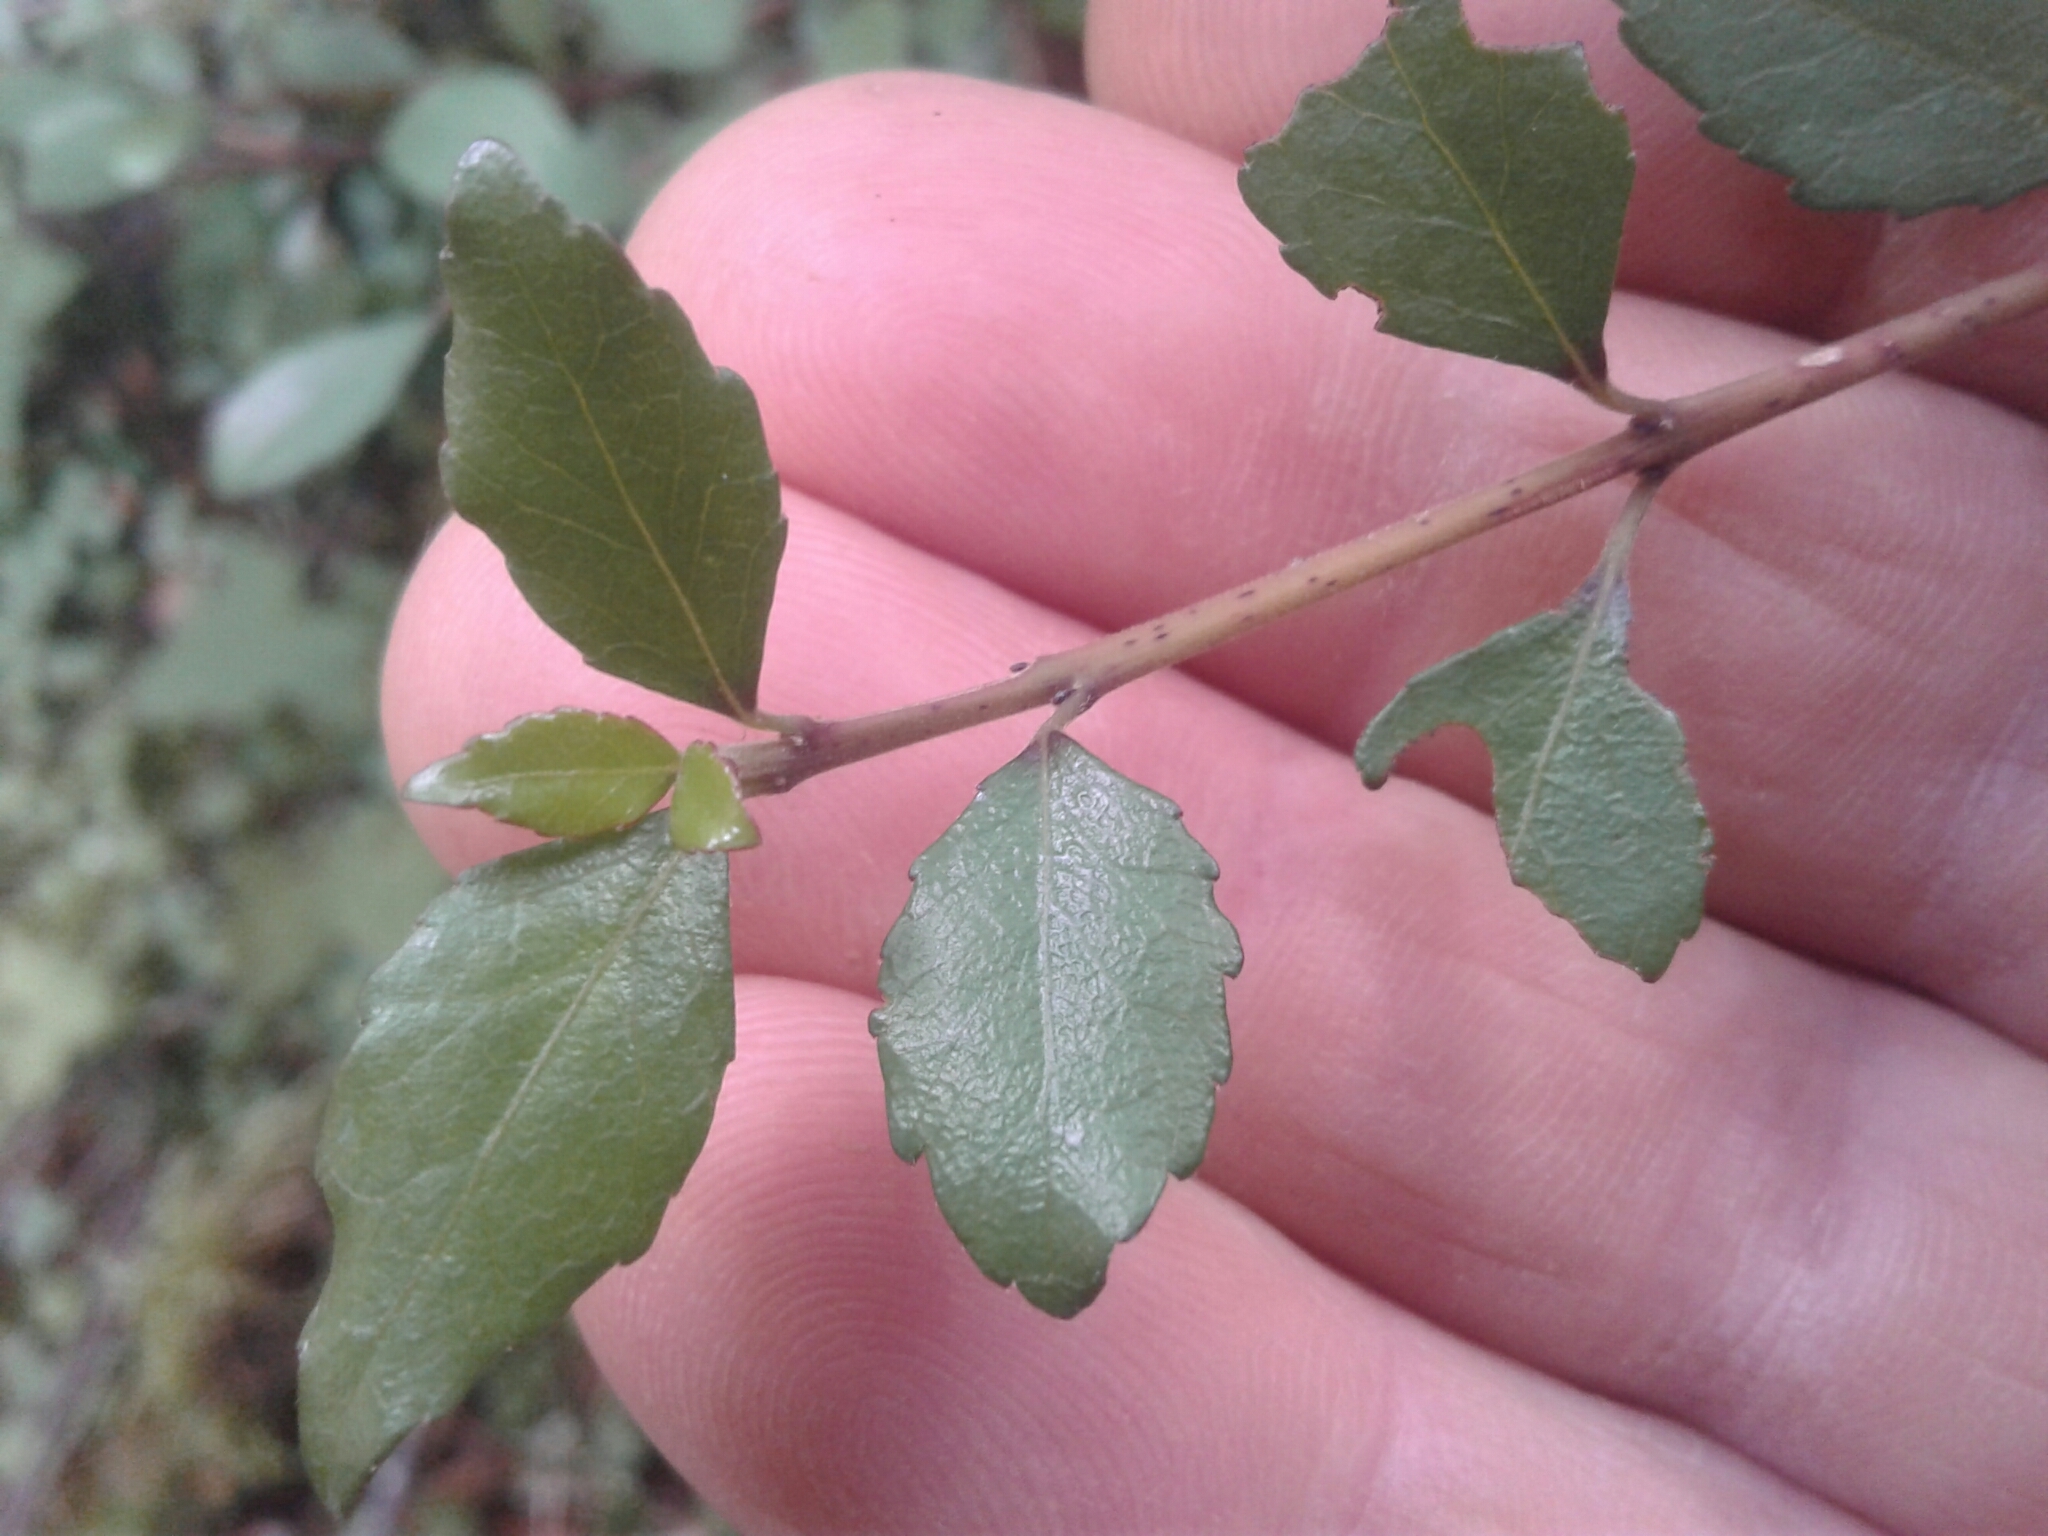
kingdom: Plantae
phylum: Tracheophyta
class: Magnoliopsida
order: Oxalidales
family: Elaeocarpaceae
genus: Aristotelia
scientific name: Aristotelia
